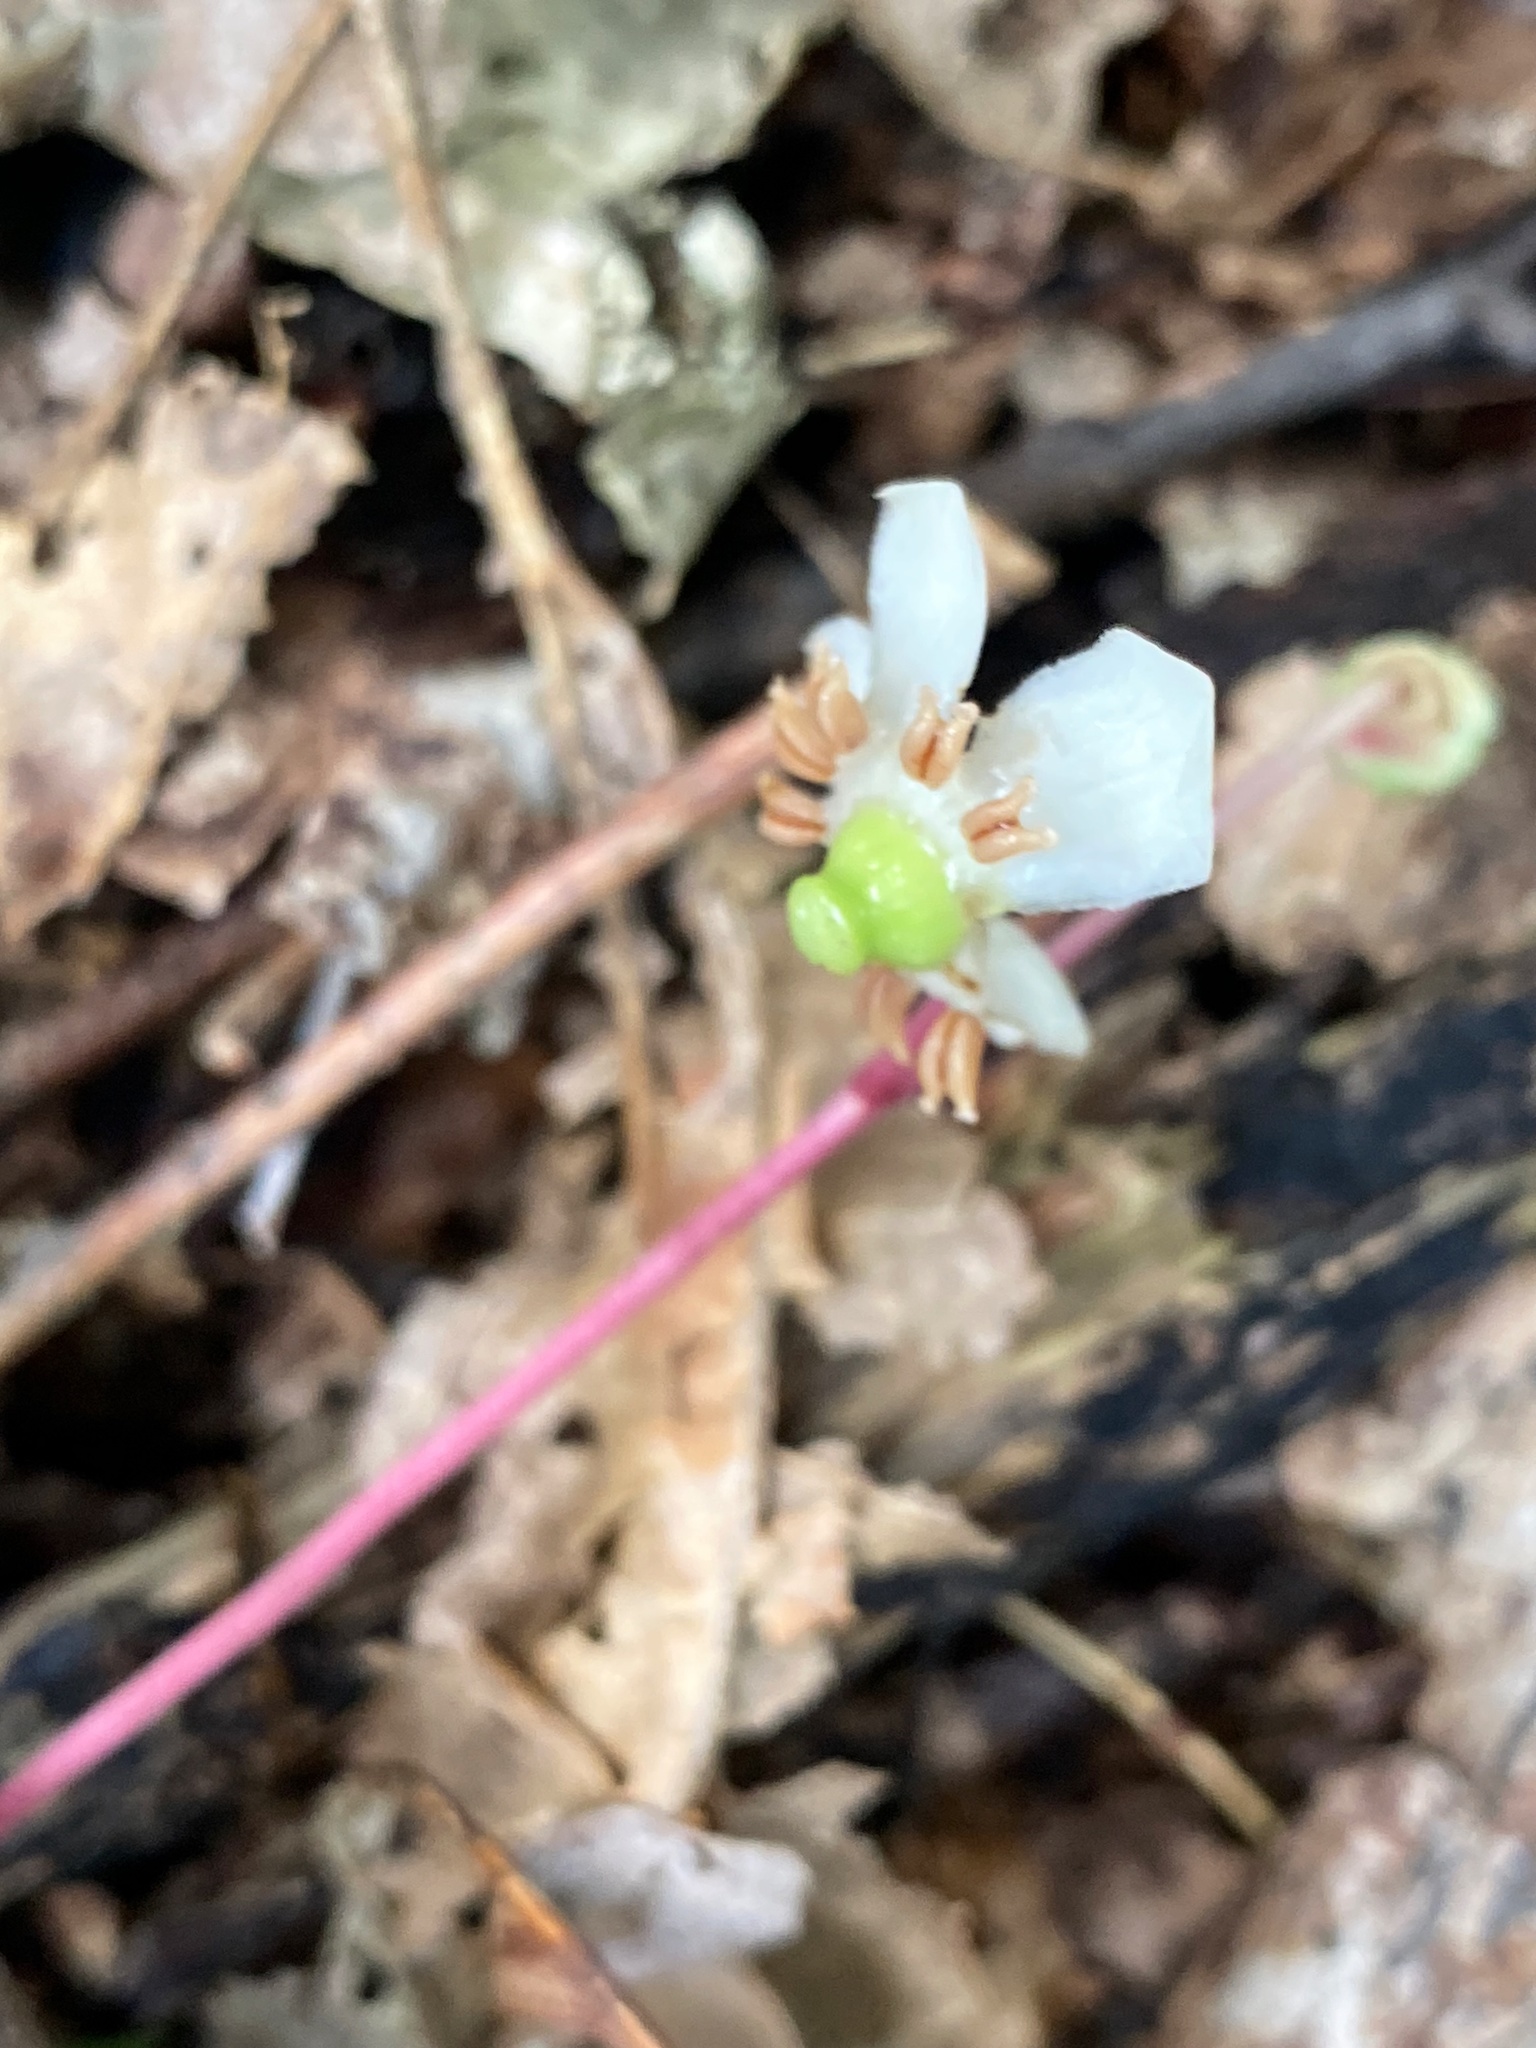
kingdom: Plantae
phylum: Tracheophyta
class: Magnoliopsida
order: Ericales
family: Ericaceae
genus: Chimaphila
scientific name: Chimaphila maculata
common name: Spotted pipsissewa
